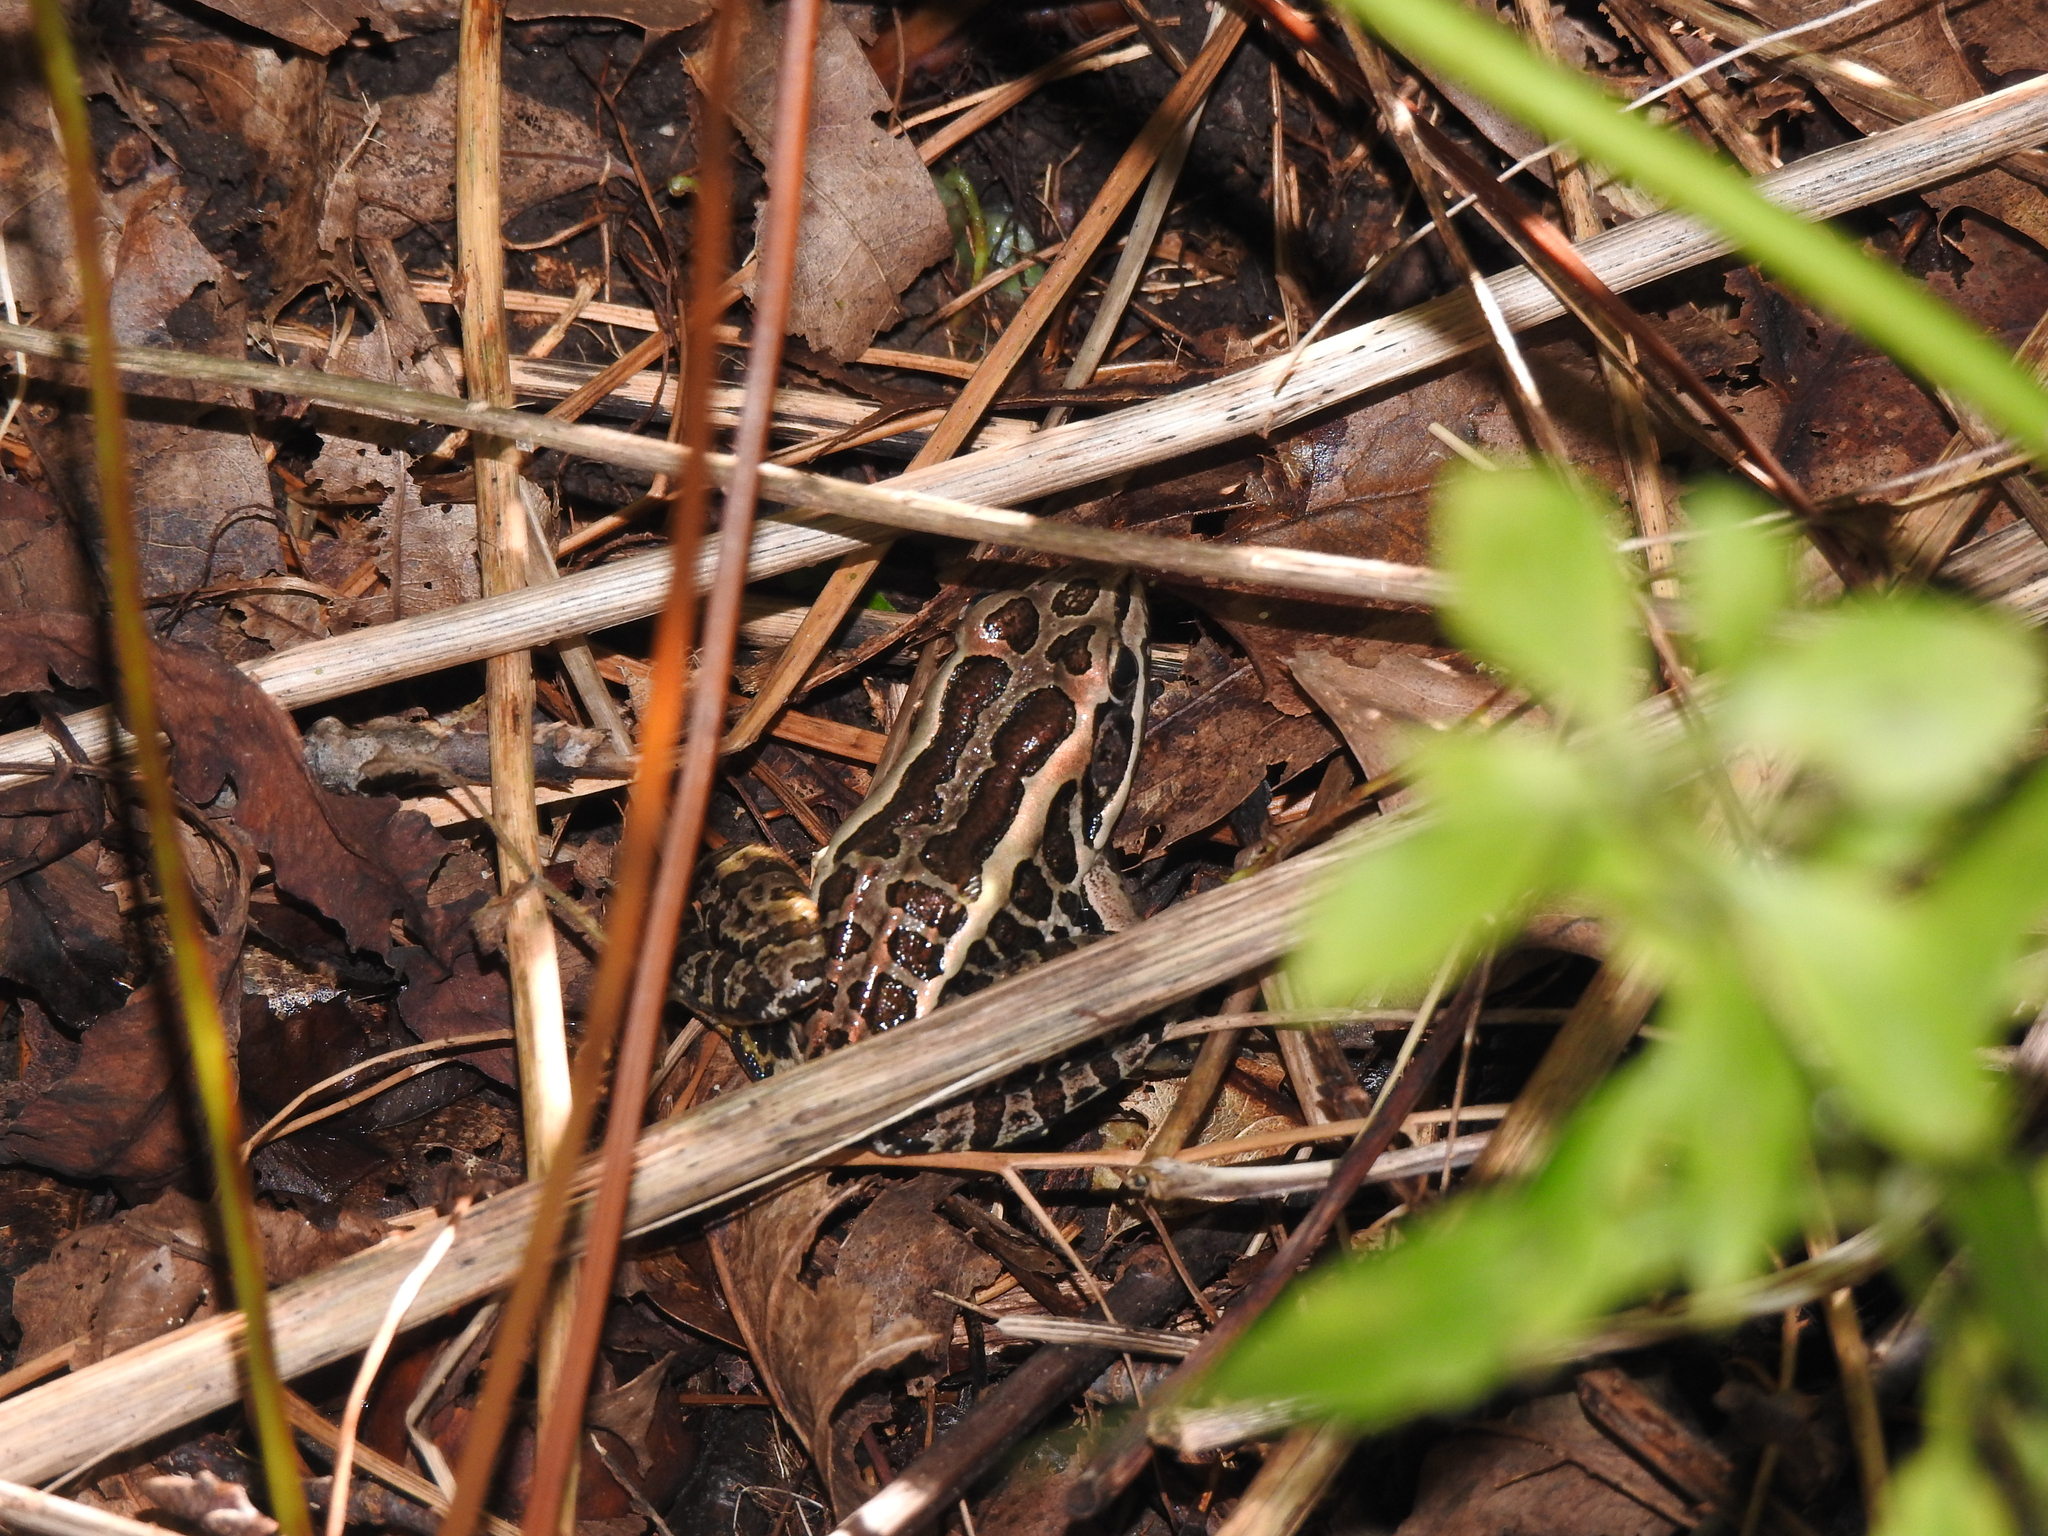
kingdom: Animalia
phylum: Chordata
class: Amphibia
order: Anura
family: Ranidae
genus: Lithobates
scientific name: Lithobates palustris
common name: Pickerel frog
